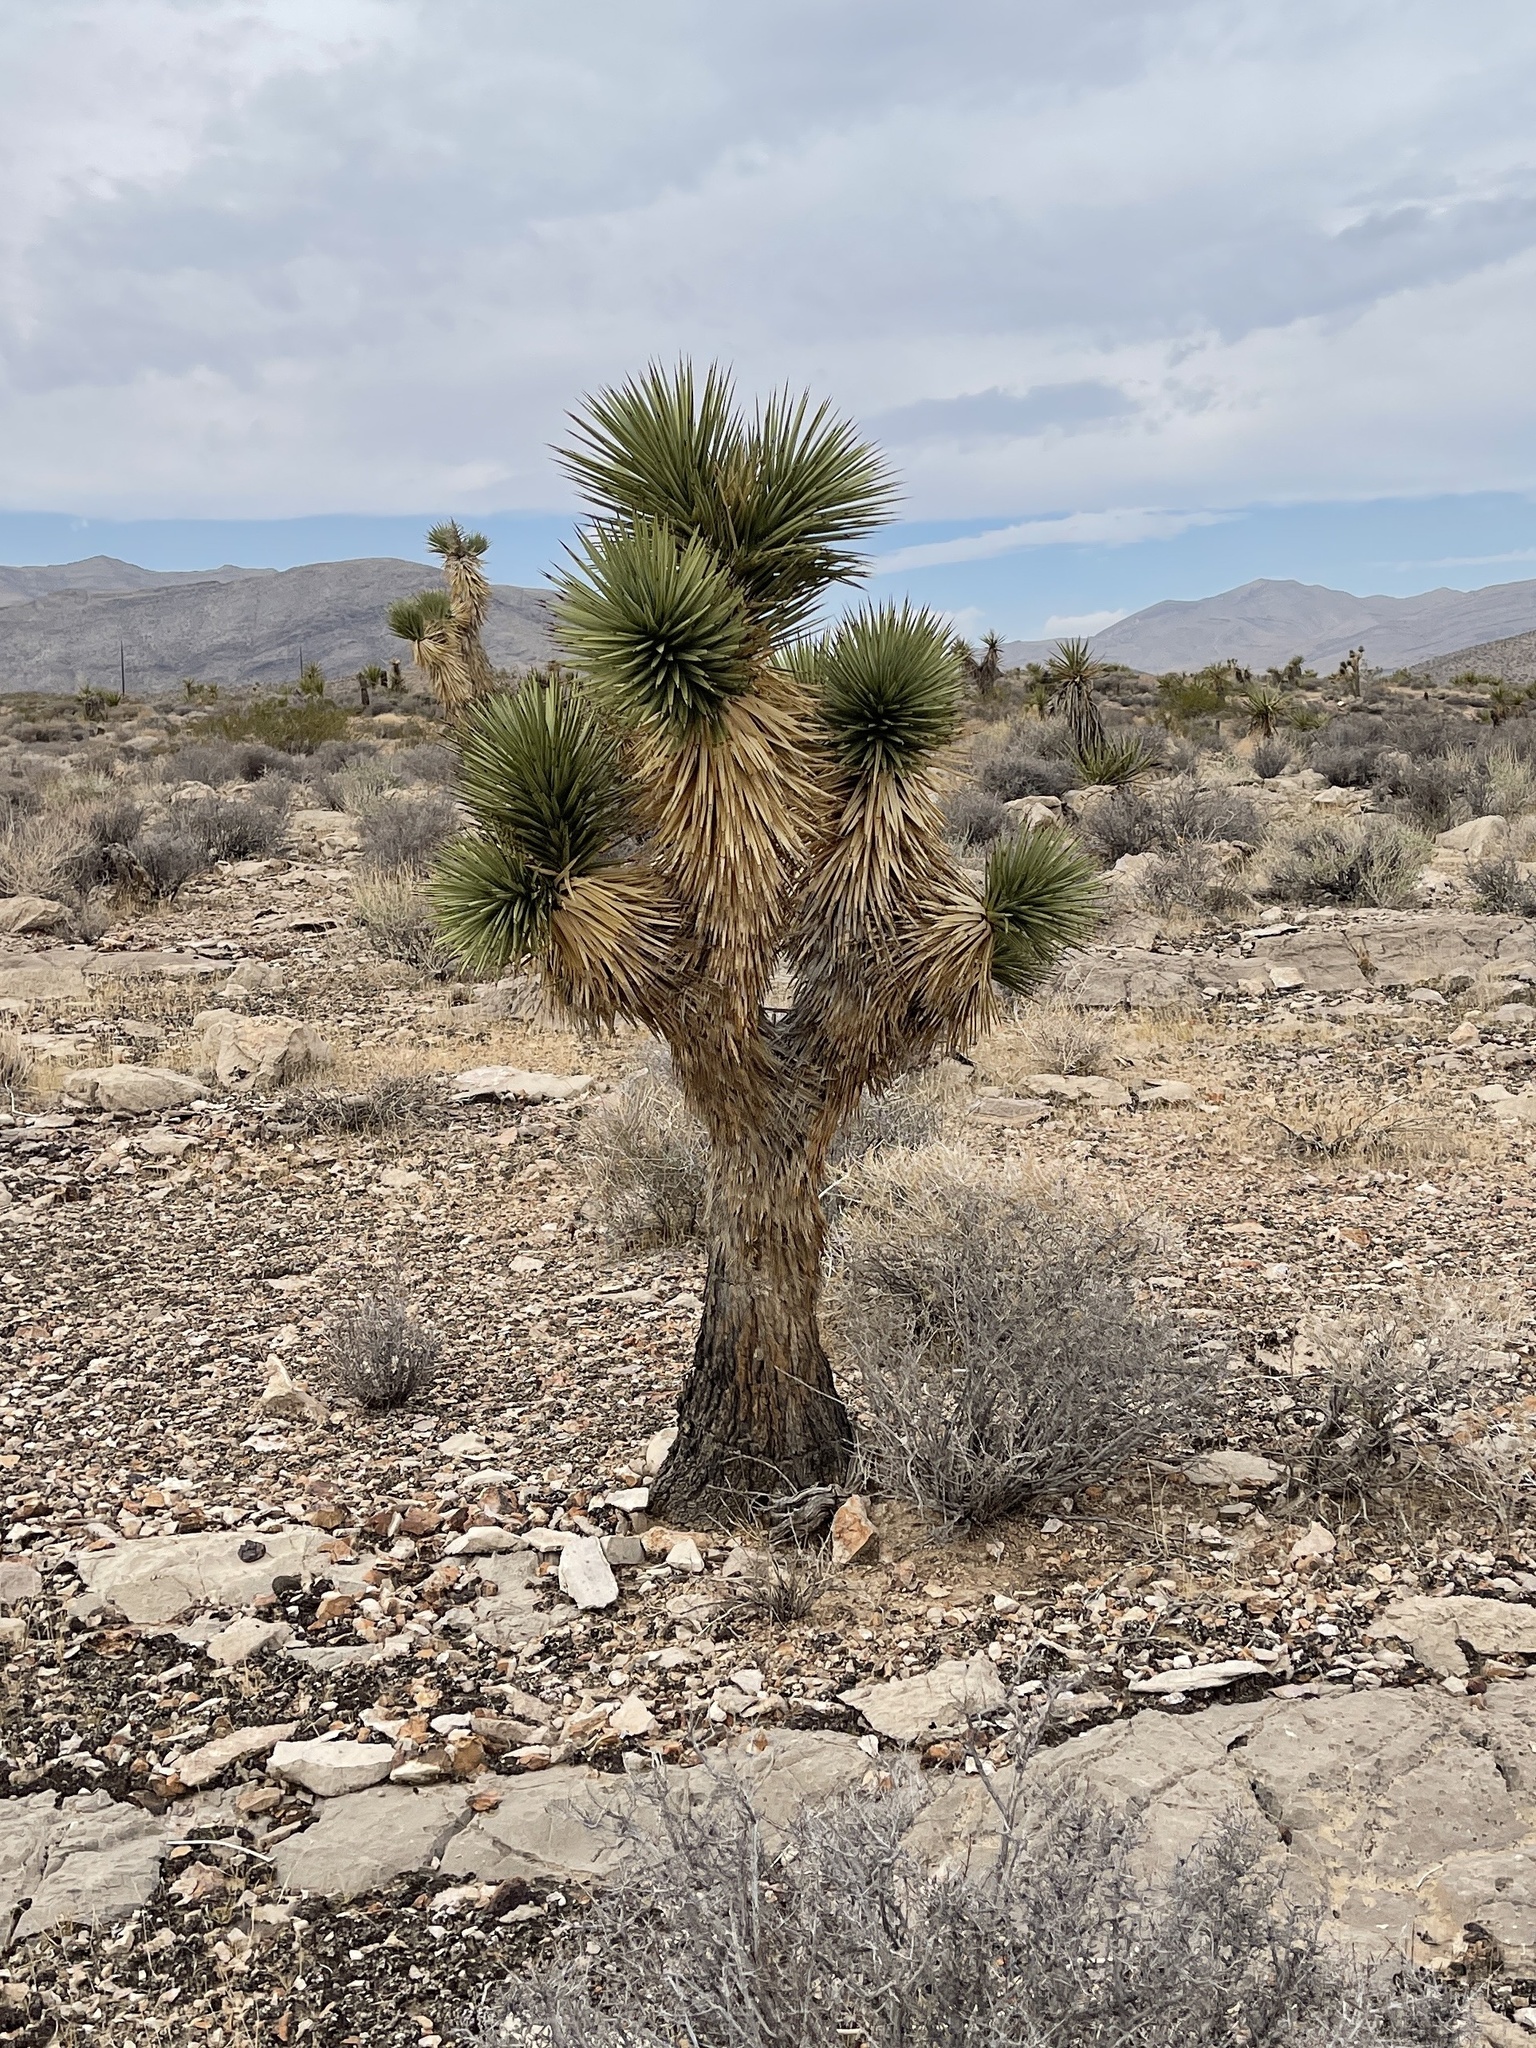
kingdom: Plantae
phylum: Tracheophyta
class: Liliopsida
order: Asparagales
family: Asparagaceae
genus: Yucca
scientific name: Yucca brevifolia
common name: Joshua tree
